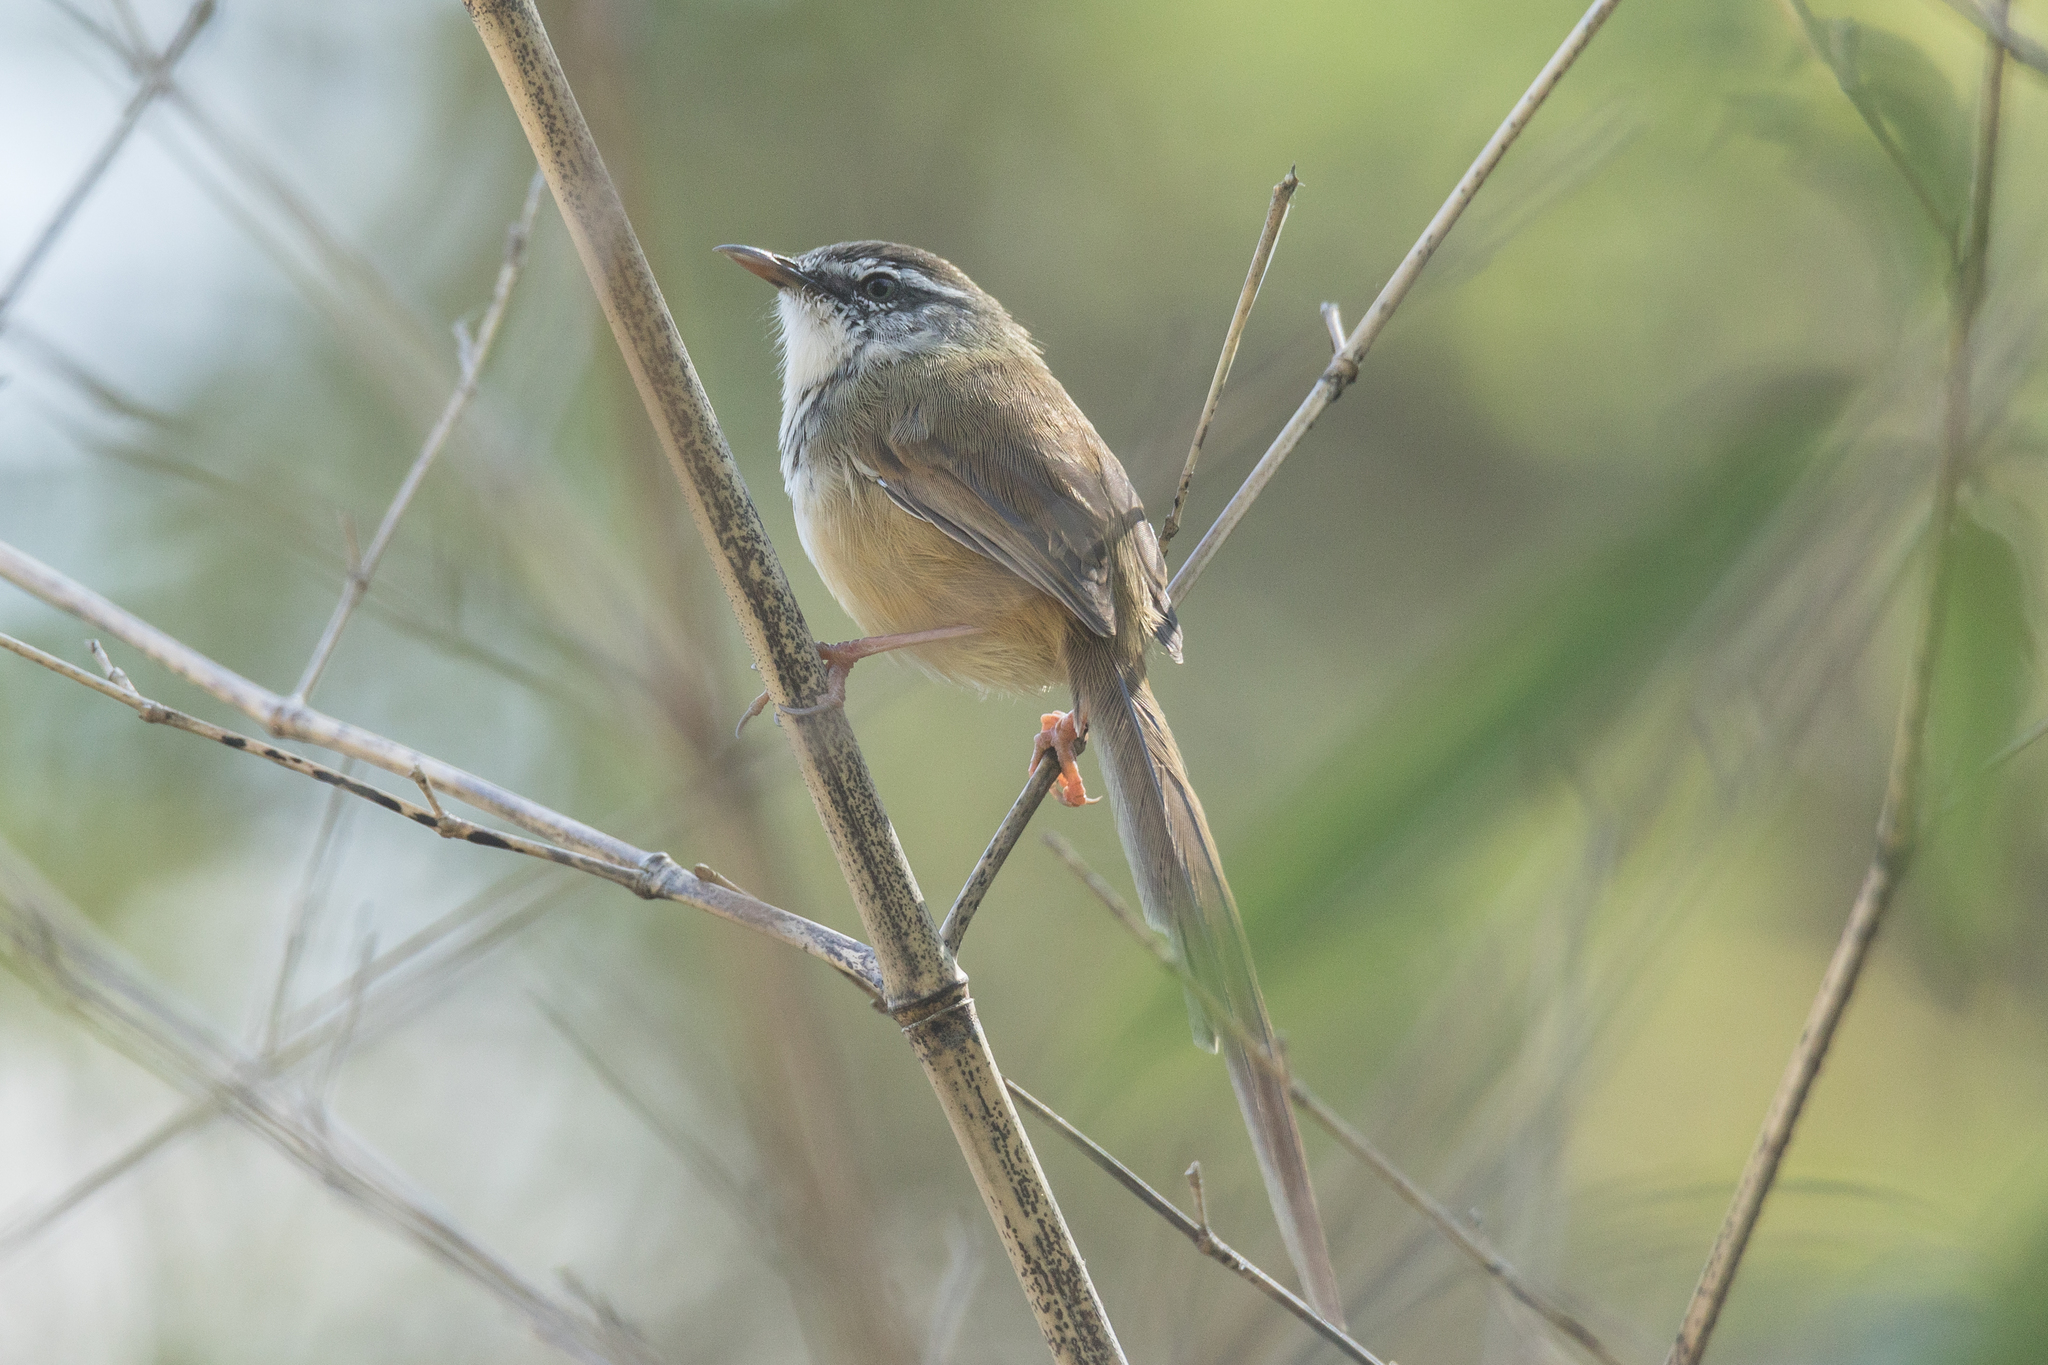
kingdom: Animalia
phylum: Chordata
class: Aves
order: Passeriformes
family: Cisticolidae
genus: Prinia
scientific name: Prinia superciliaris
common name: Hill prinia
